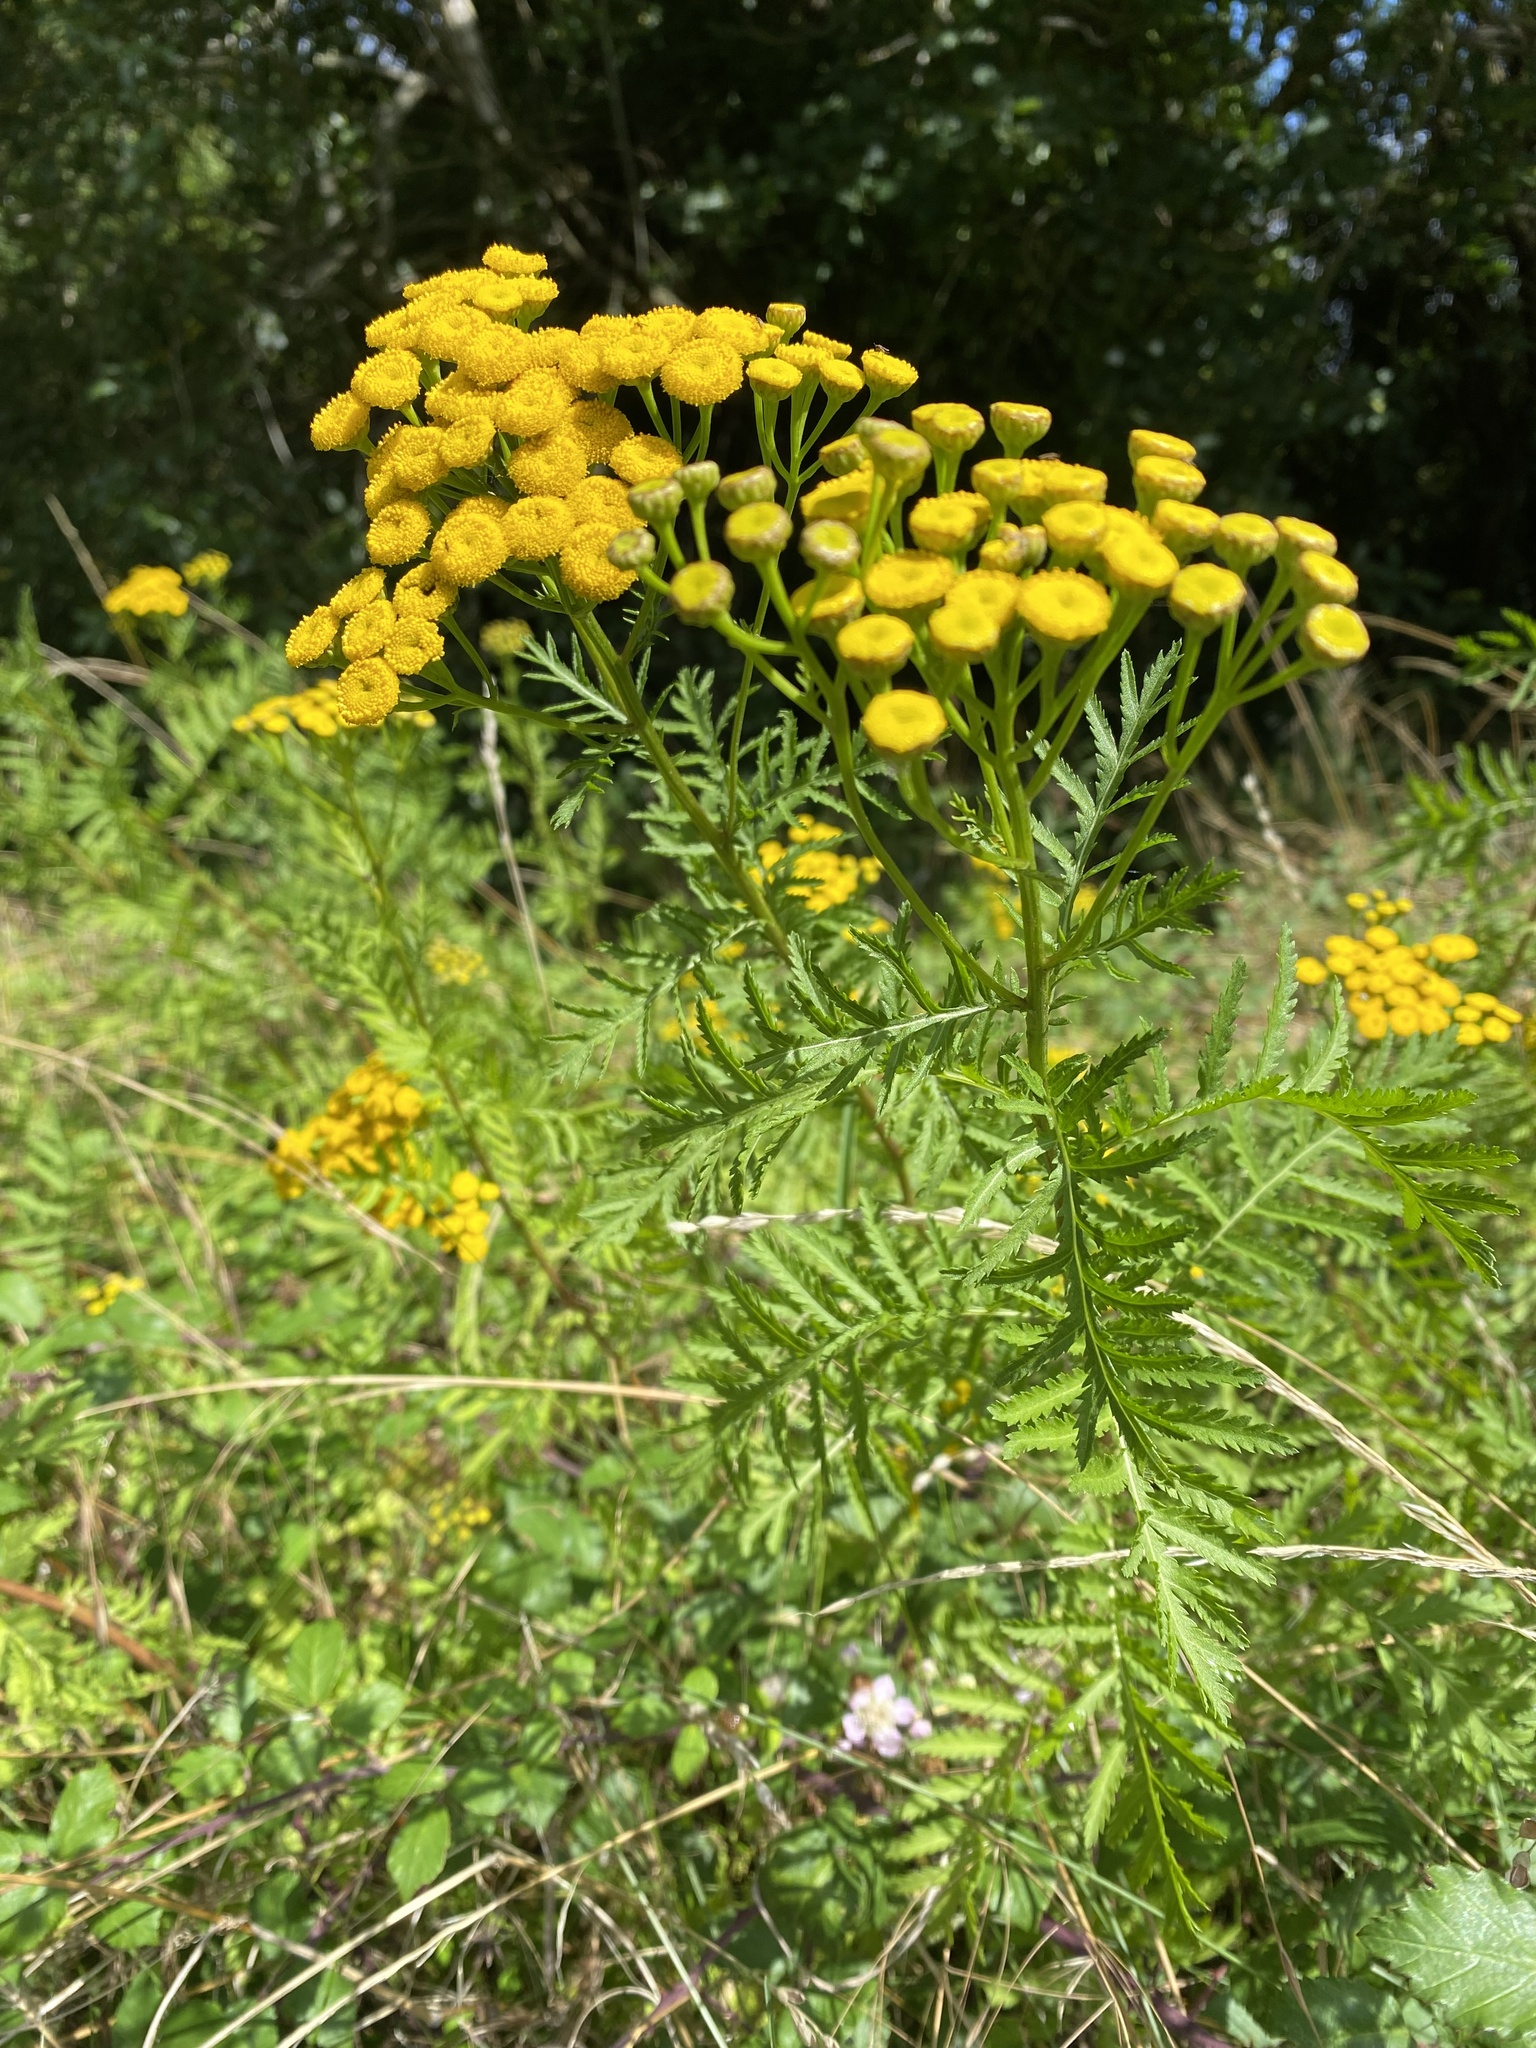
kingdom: Plantae
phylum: Tracheophyta
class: Magnoliopsida
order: Asterales
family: Asteraceae
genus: Tanacetum
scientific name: Tanacetum vulgare
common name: Common tansy
